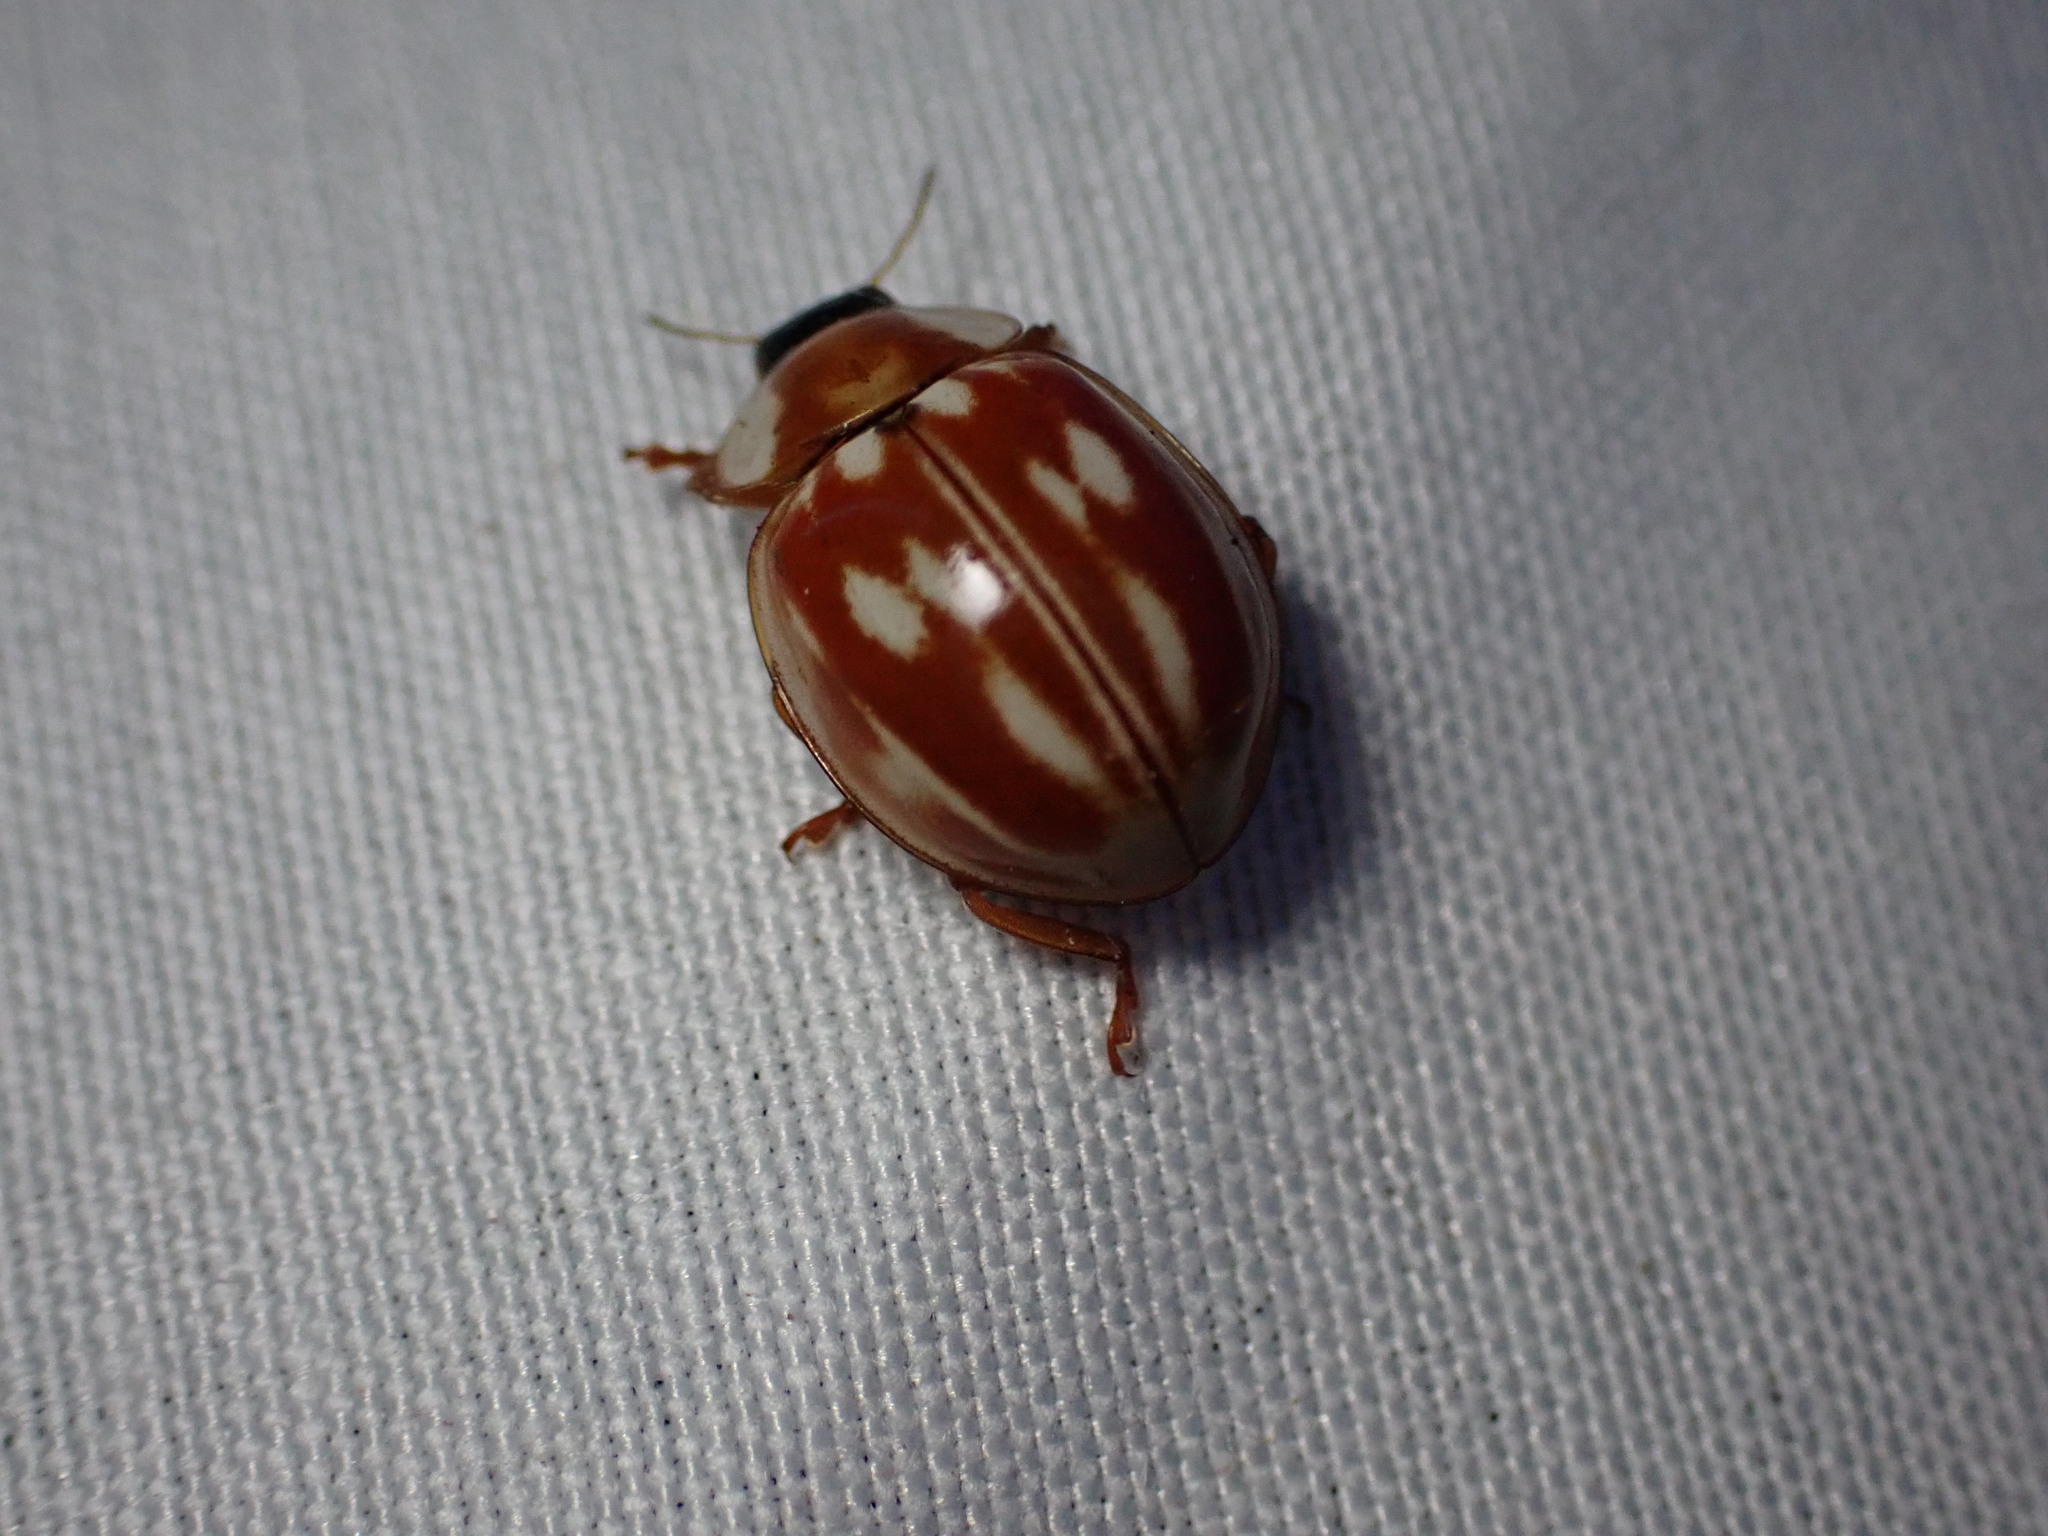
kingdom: Animalia
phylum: Arthropoda
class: Insecta
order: Coleoptera
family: Coccinellidae
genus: Myzia
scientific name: Myzia oblongoguttata
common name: Striped ladybird
